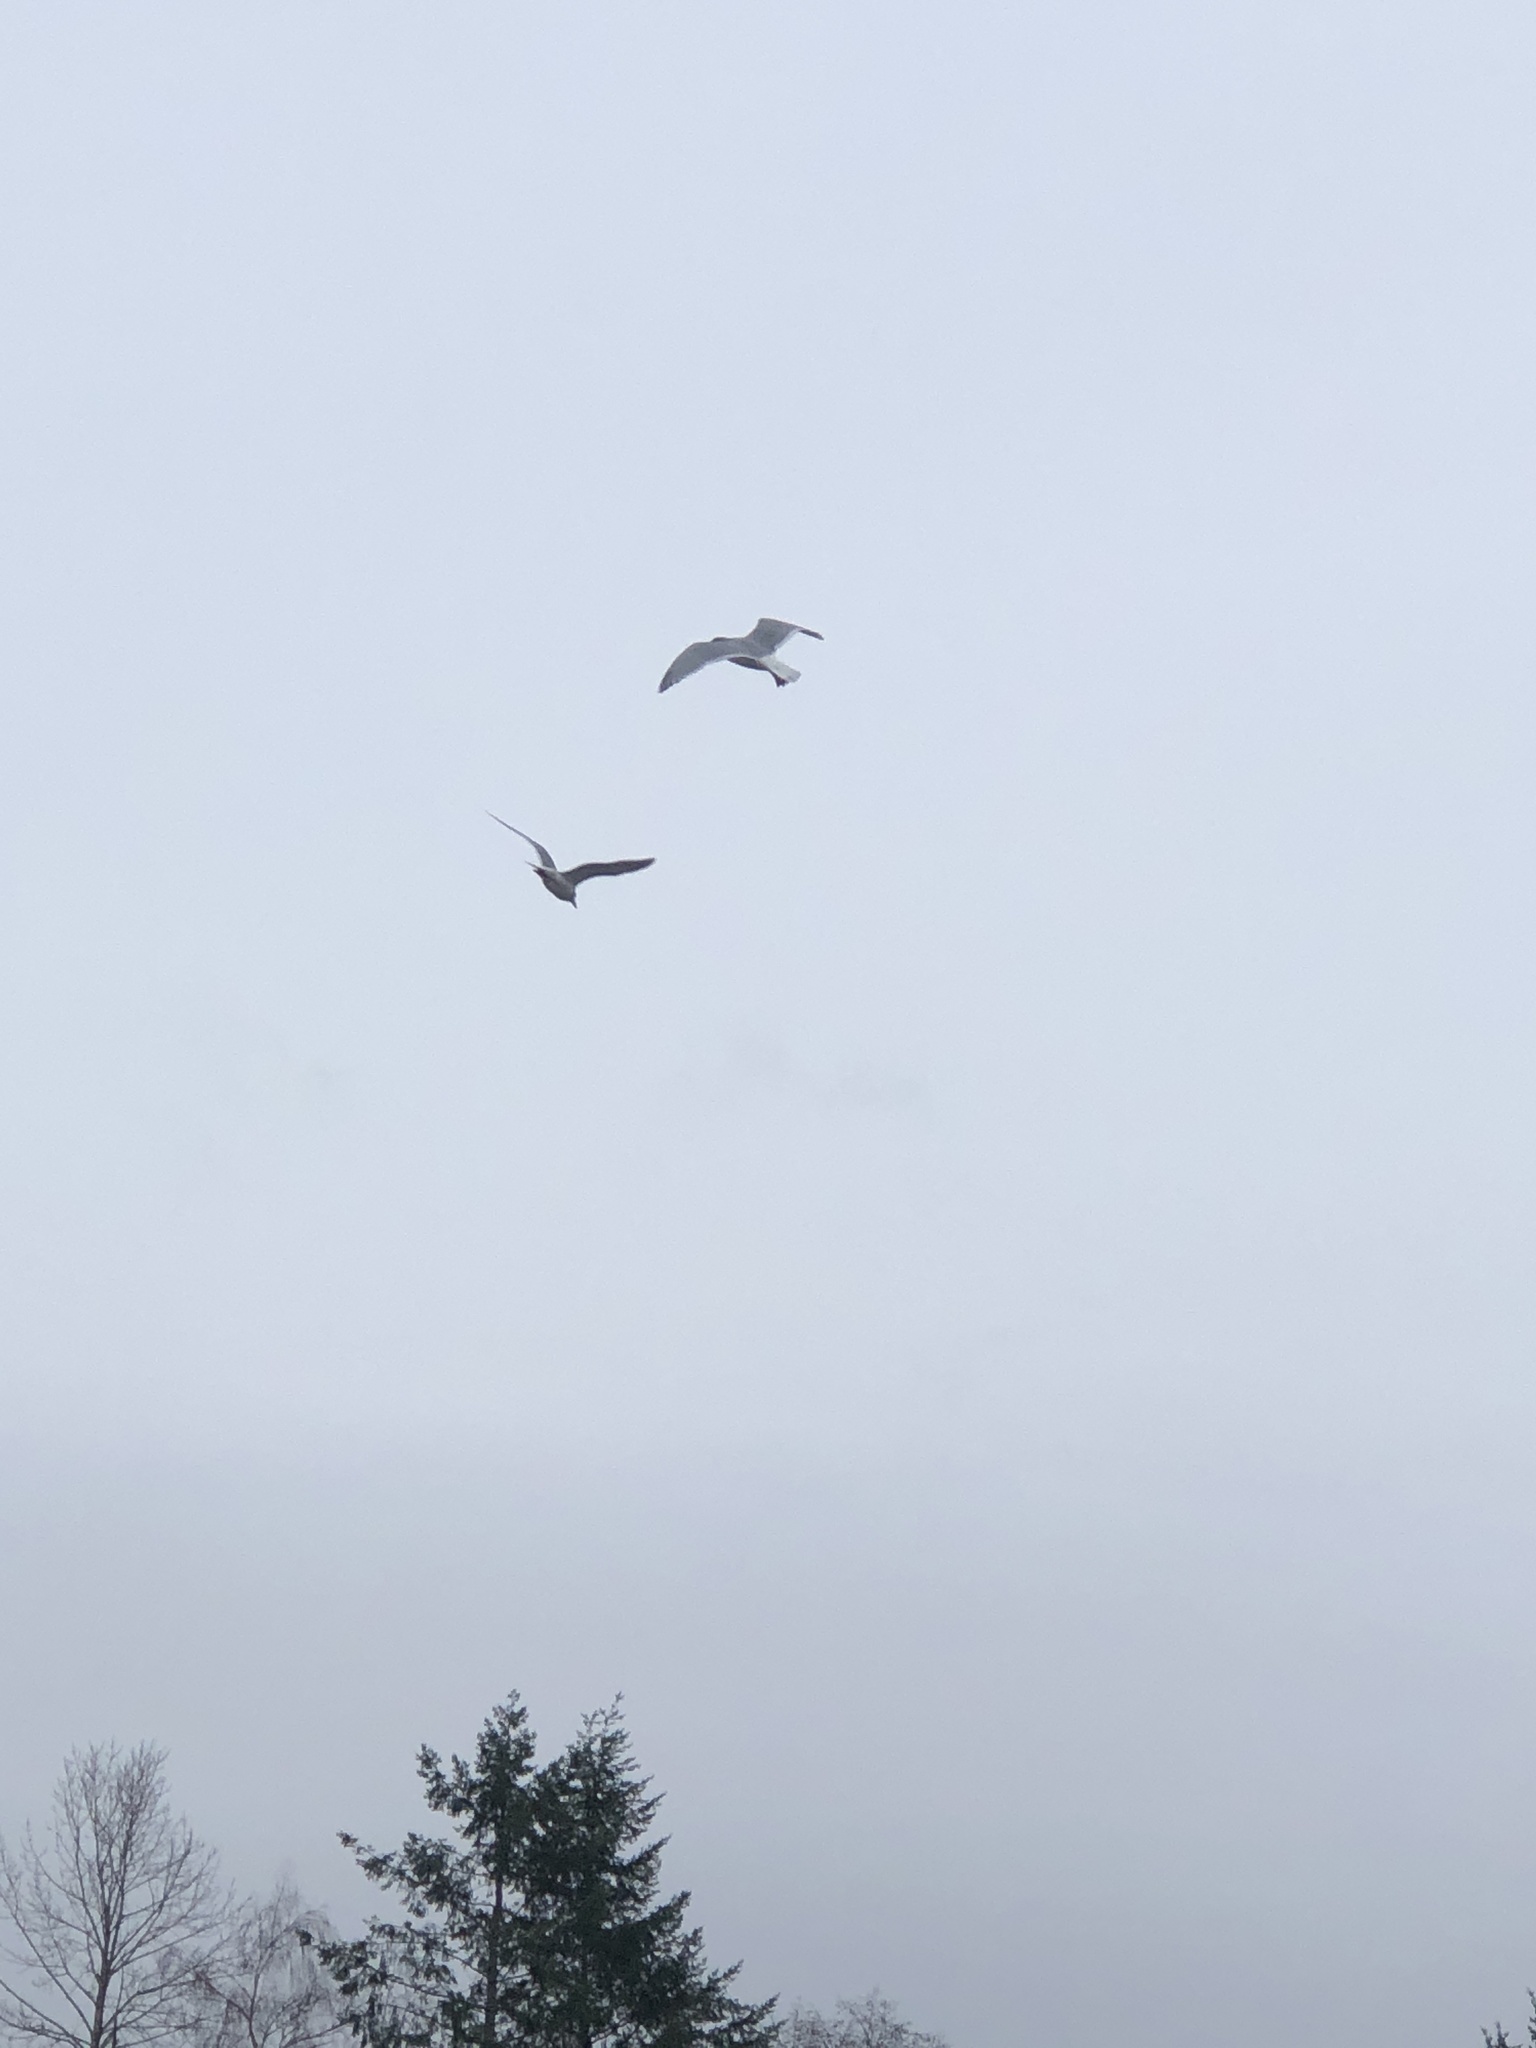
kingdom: Animalia
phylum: Chordata
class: Aves
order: Charadriiformes
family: Laridae
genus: Larus
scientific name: Larus
